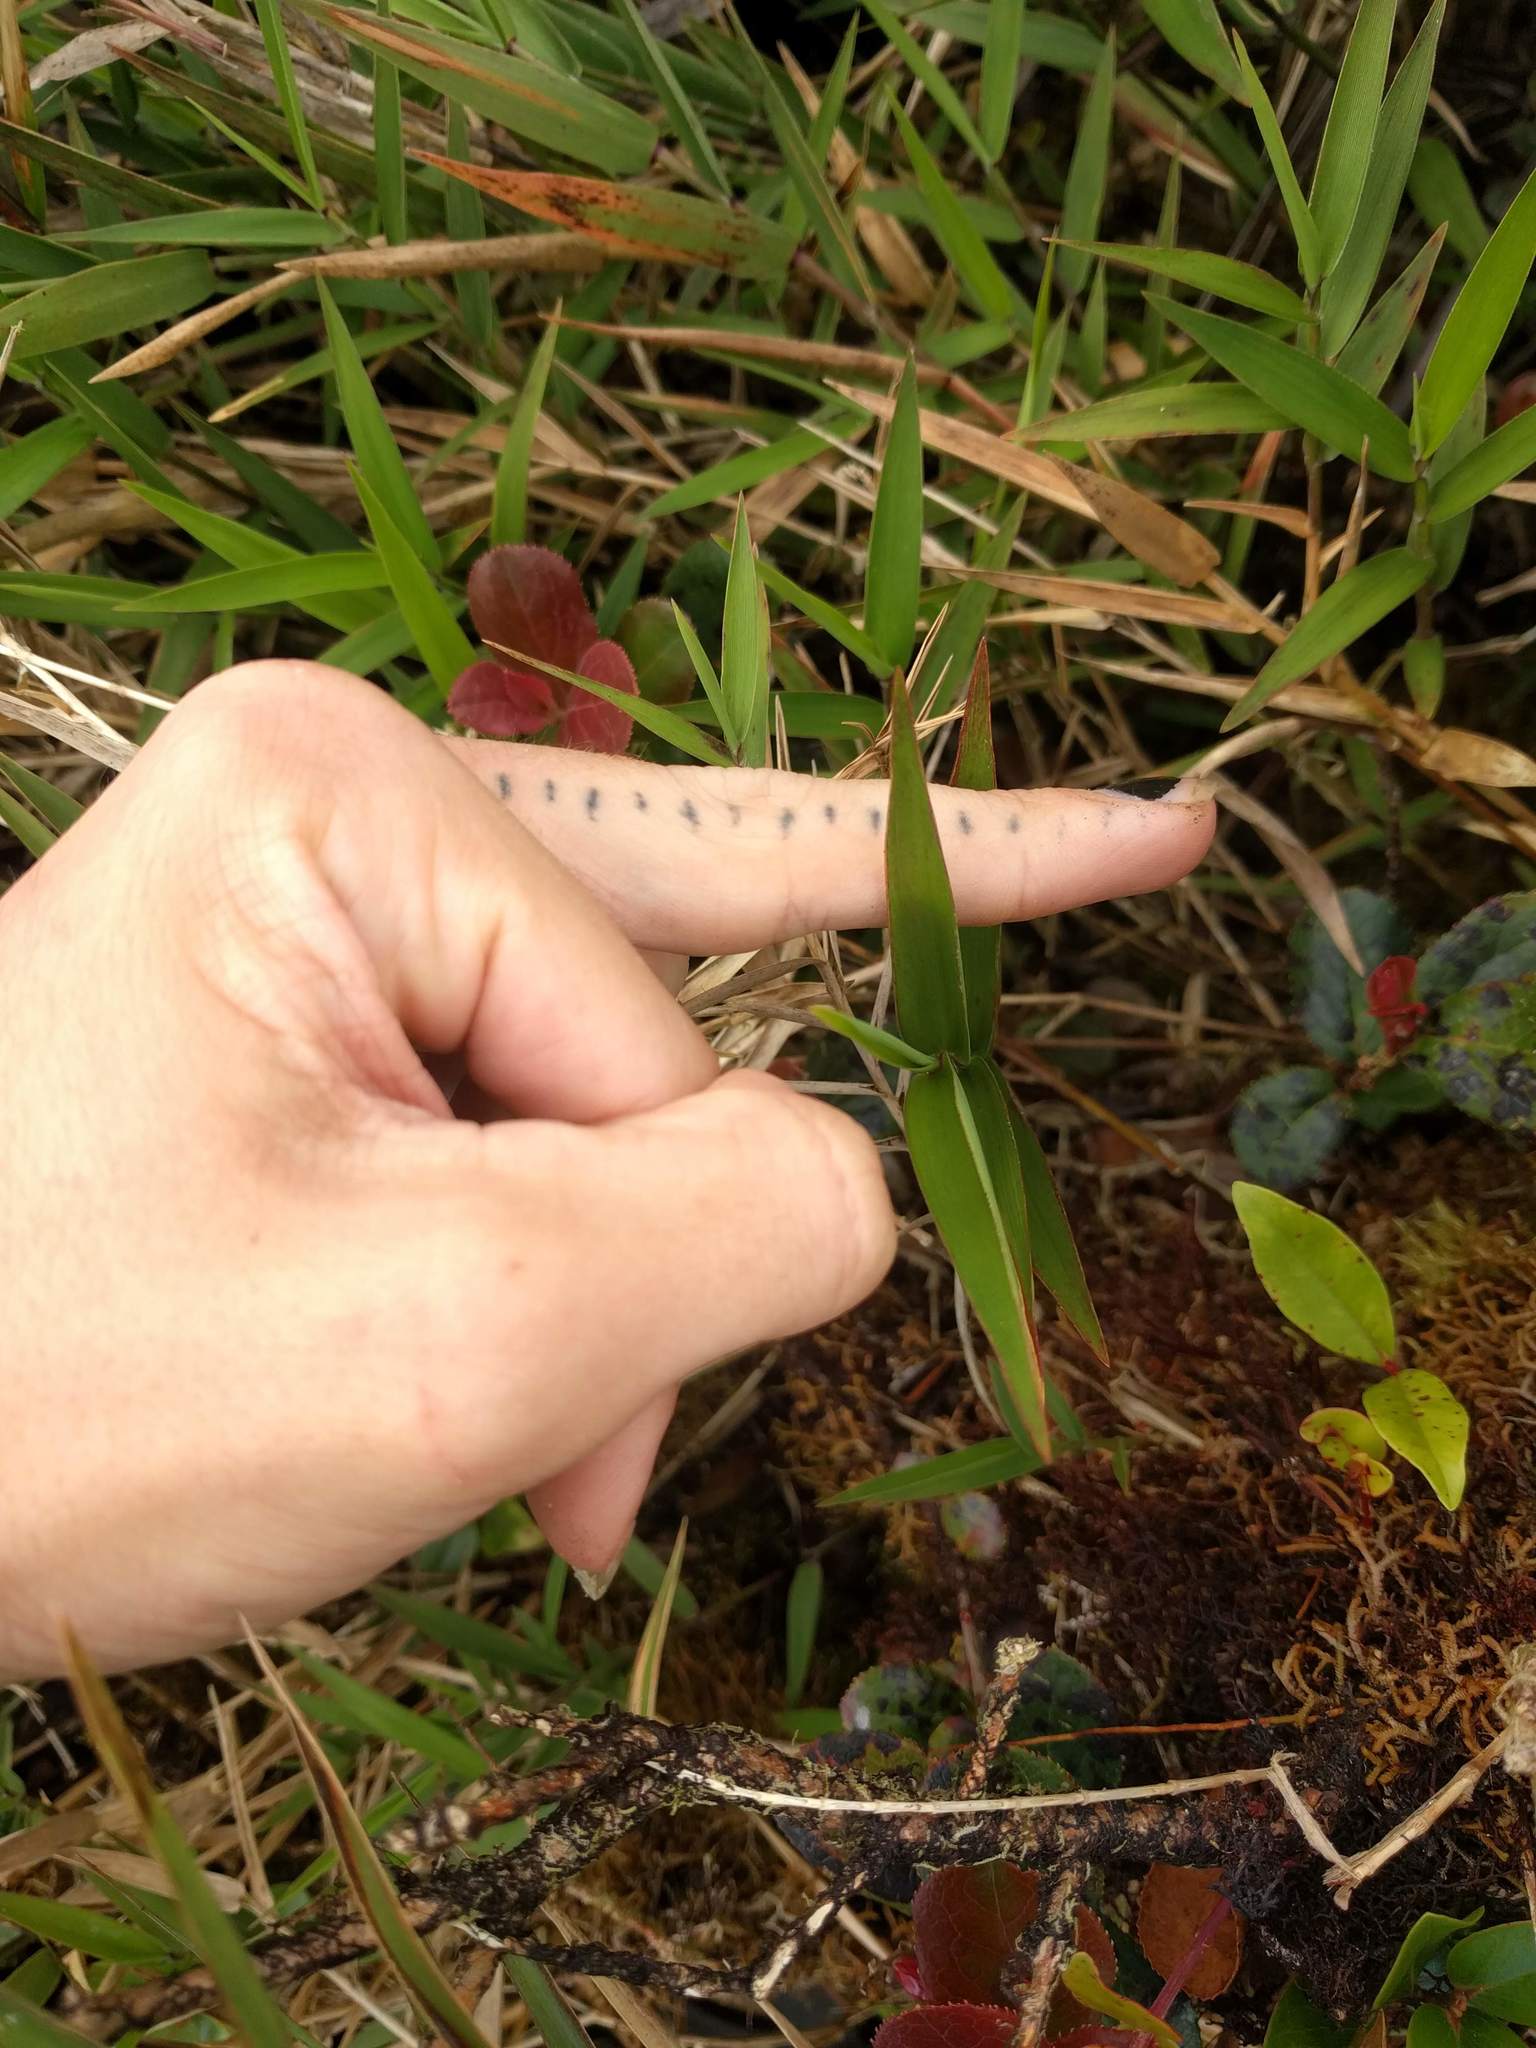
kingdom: Plantae
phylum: Tracheophyta
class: Liliopsida
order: Poales
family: Poaceae
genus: Isachne
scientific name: Isachne distichophylla
